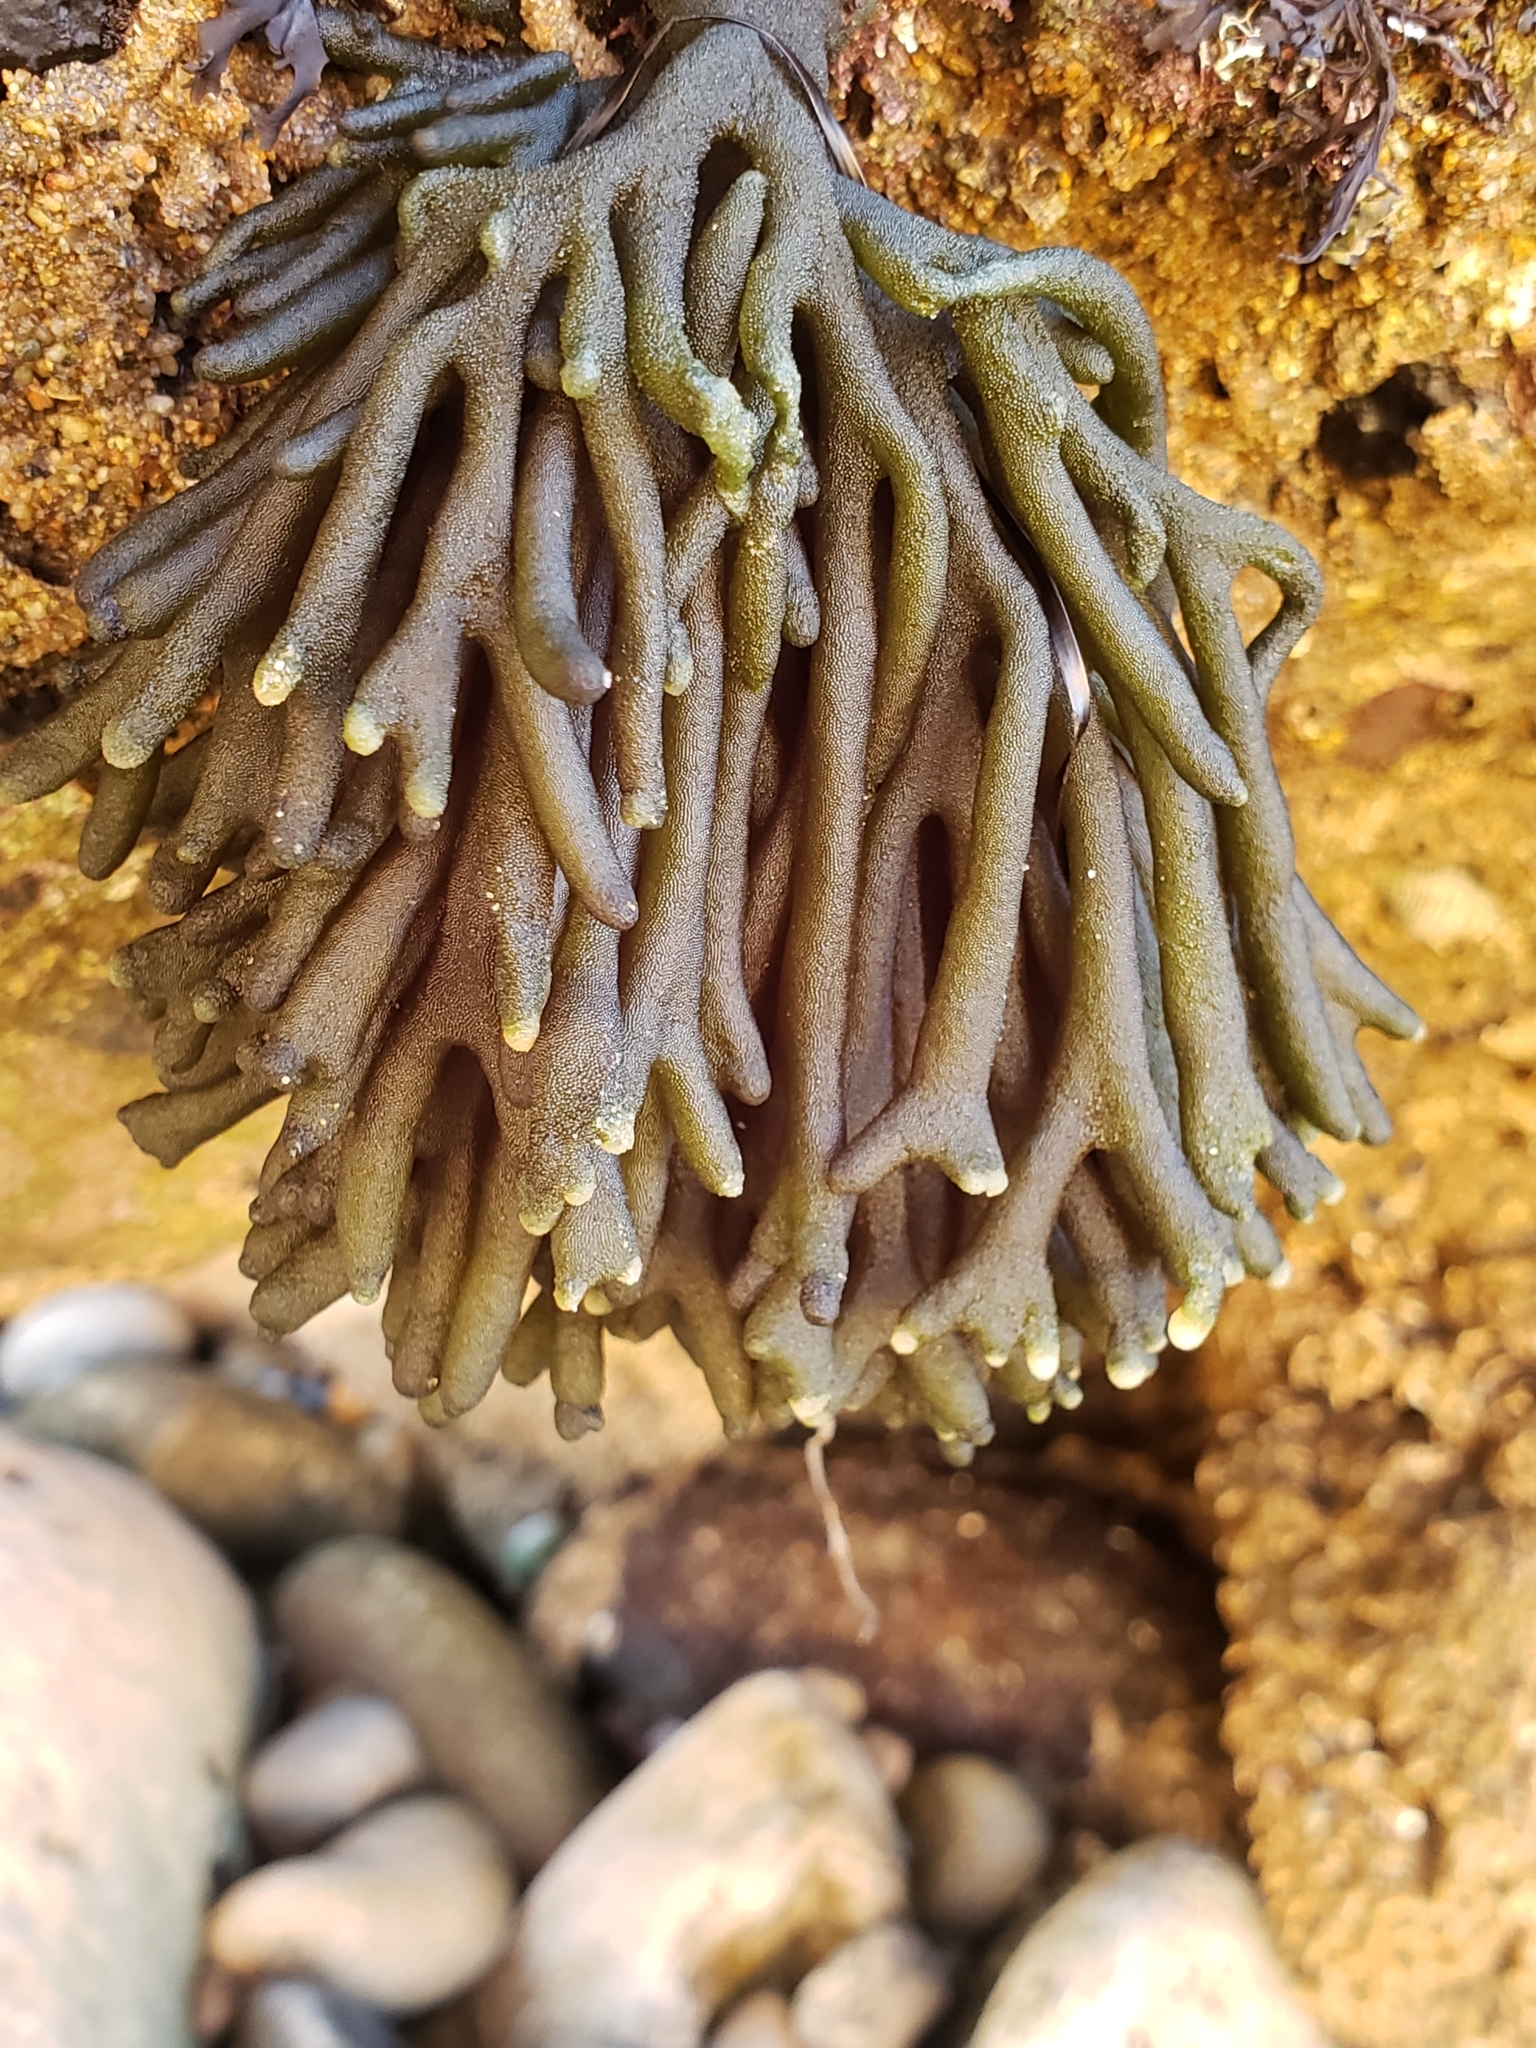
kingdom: Plantae
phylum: Chlorophyta
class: Ulvophyceae
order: Bryopsidales
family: Codiaceae
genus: Codium
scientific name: Codium fragile
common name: Dead man's fingers
